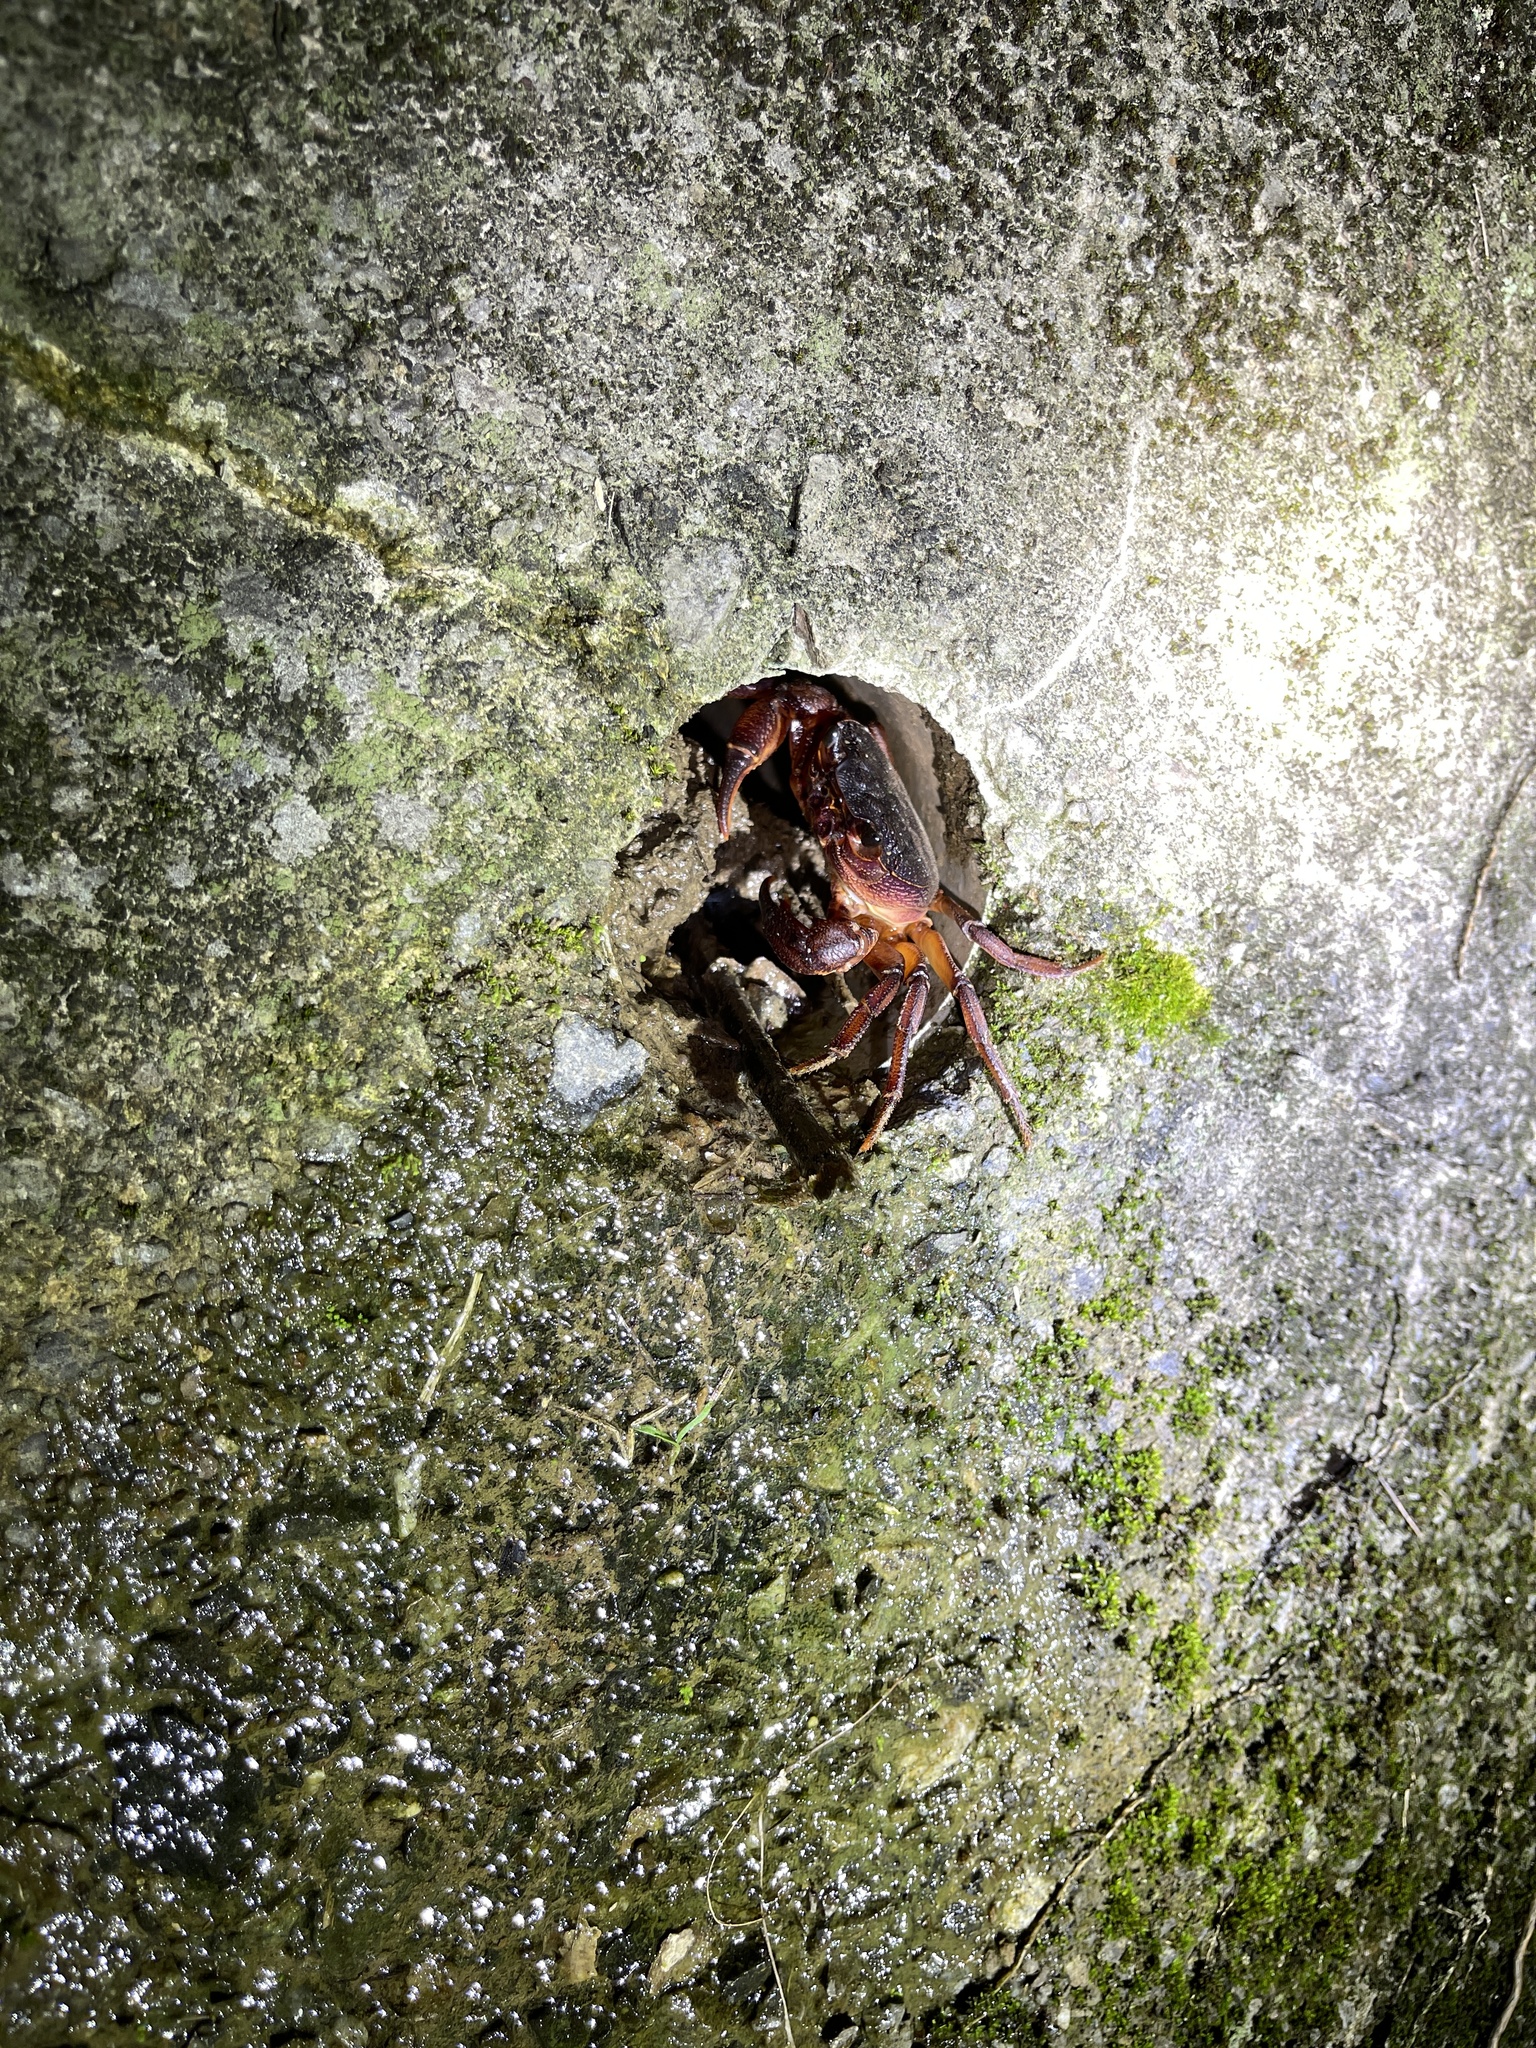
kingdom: Animalia
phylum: Arthropoda
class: Malacostraca
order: Decapoda
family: Potamidae
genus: Candidiopotamon
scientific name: Candidiopotamon rathbuni
